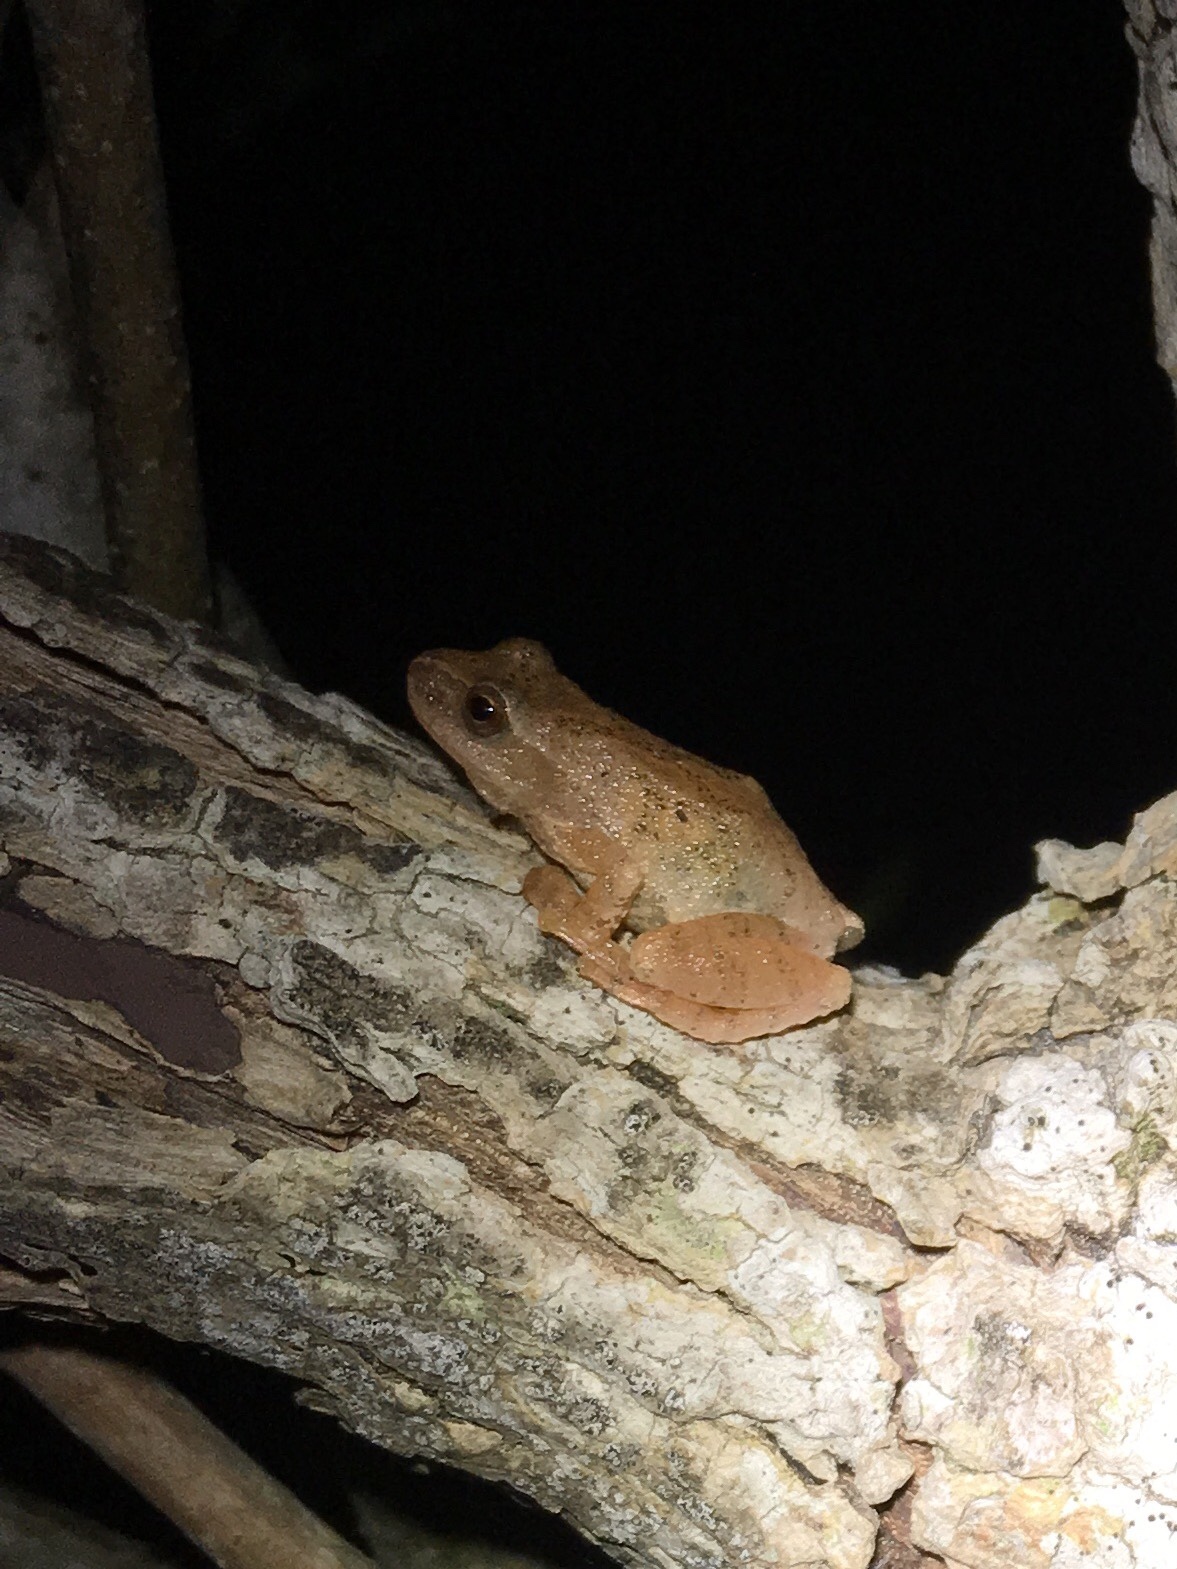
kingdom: Animalia
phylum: Chordata
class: Amphibia
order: Anura
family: Hylidae
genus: Pseudacris
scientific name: Pseudacris crucifer
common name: Spring peeper
